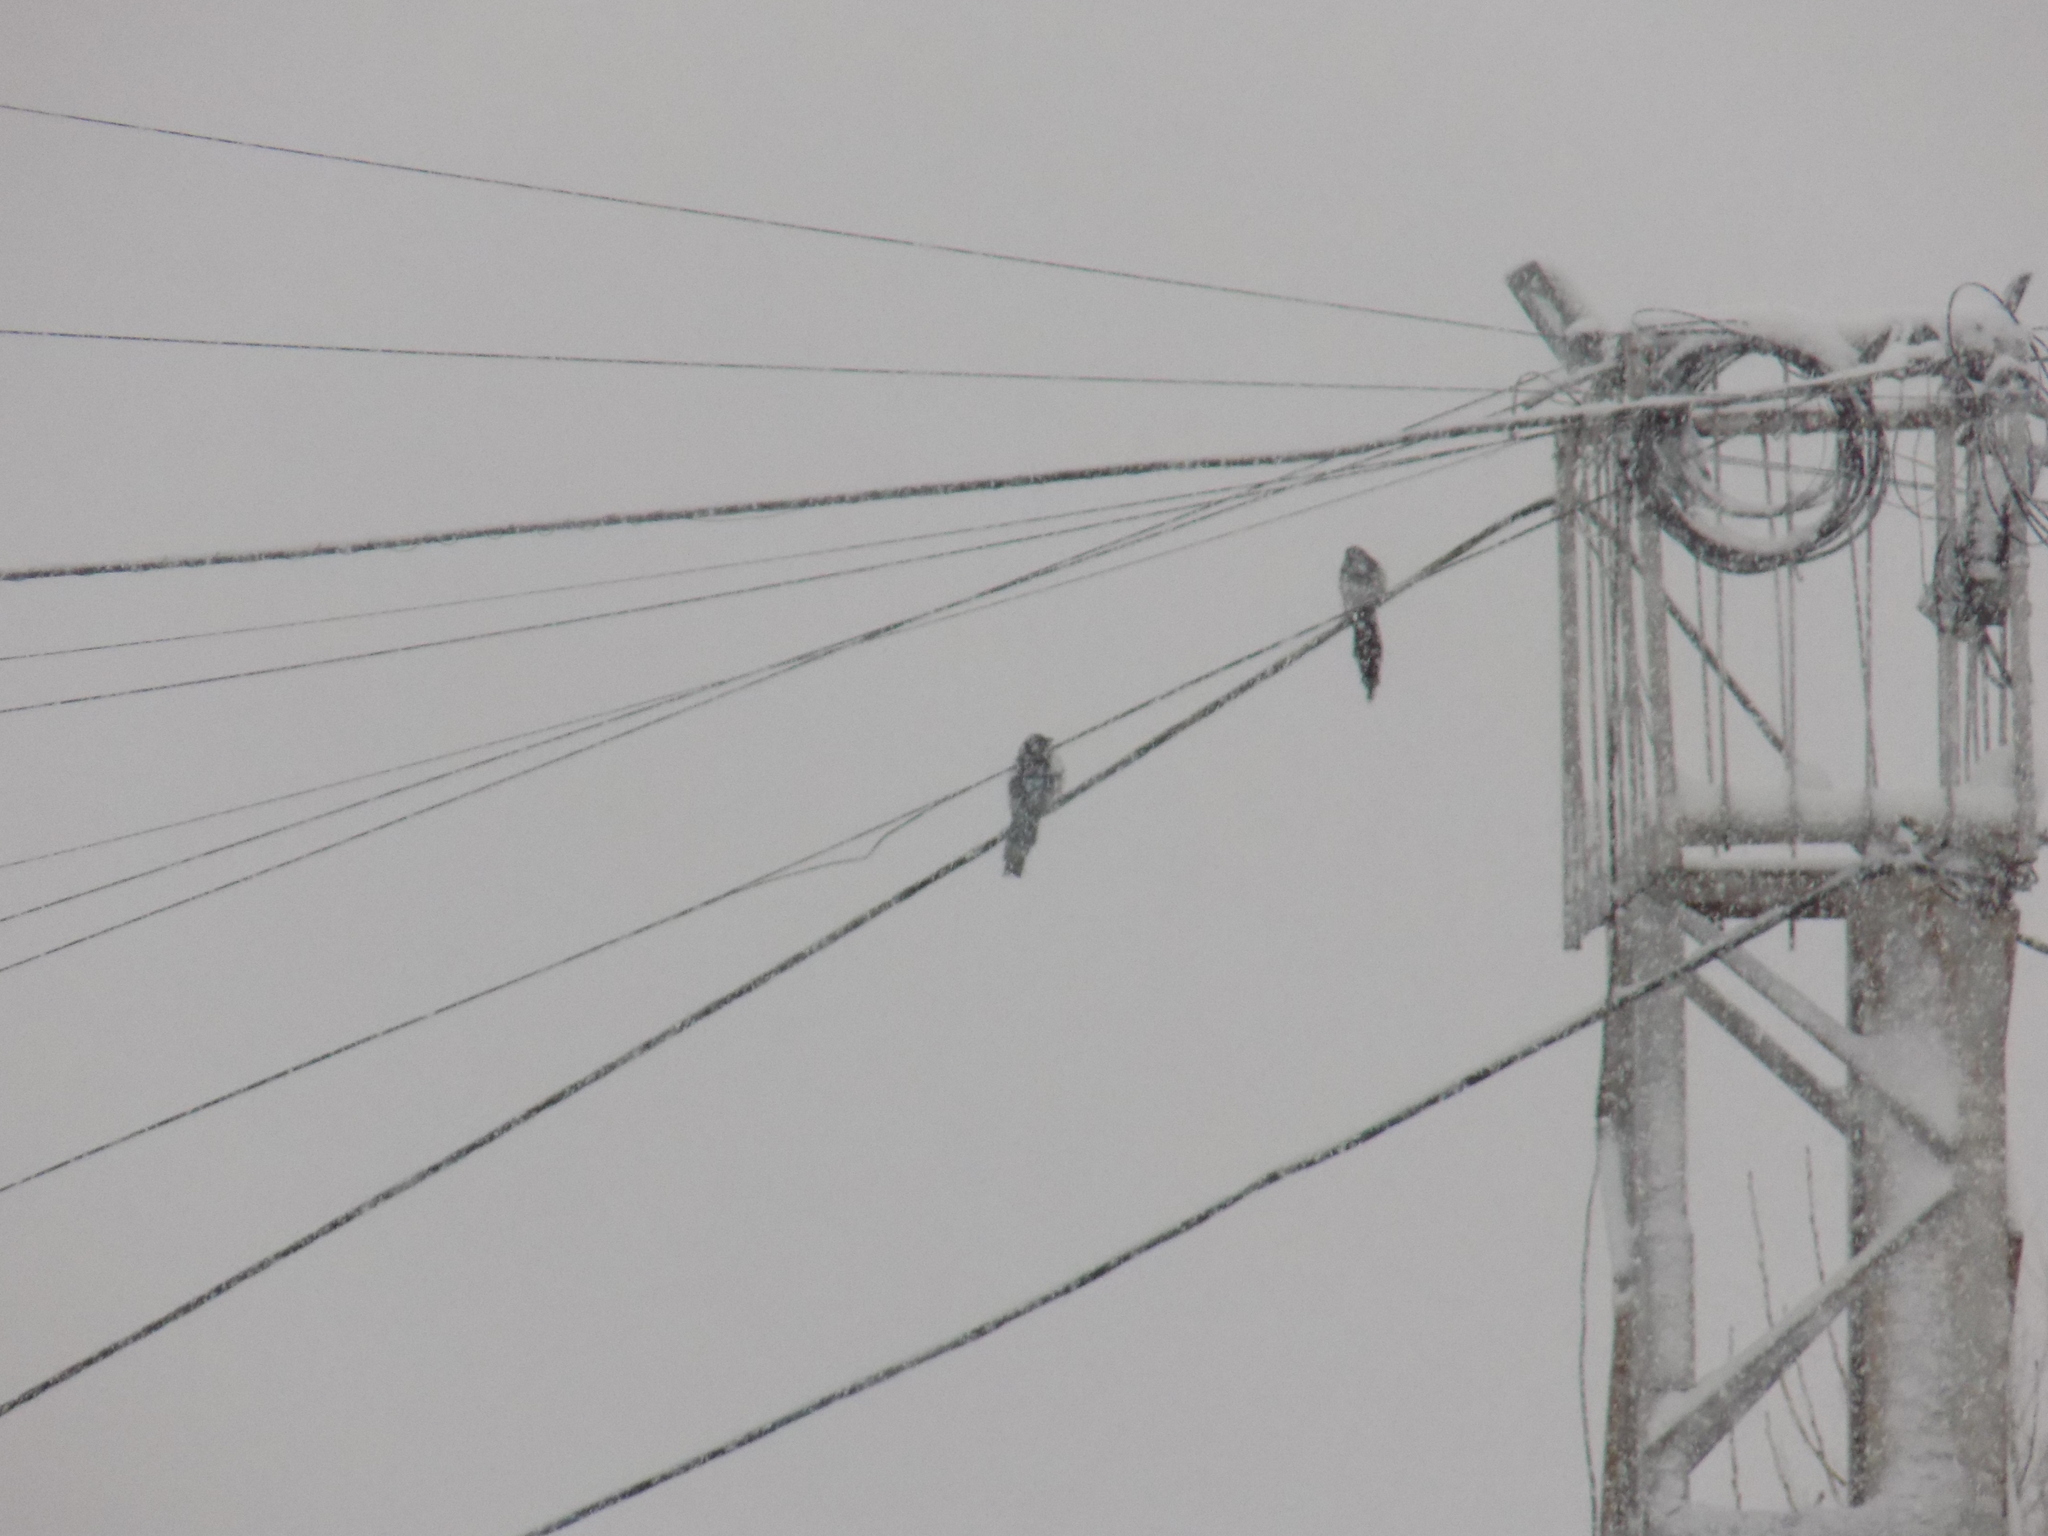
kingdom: Animalia
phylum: Chordata
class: Aves
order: Passeriformes
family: Corvidae
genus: Pica
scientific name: Pica pica
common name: Eurasian magpie
